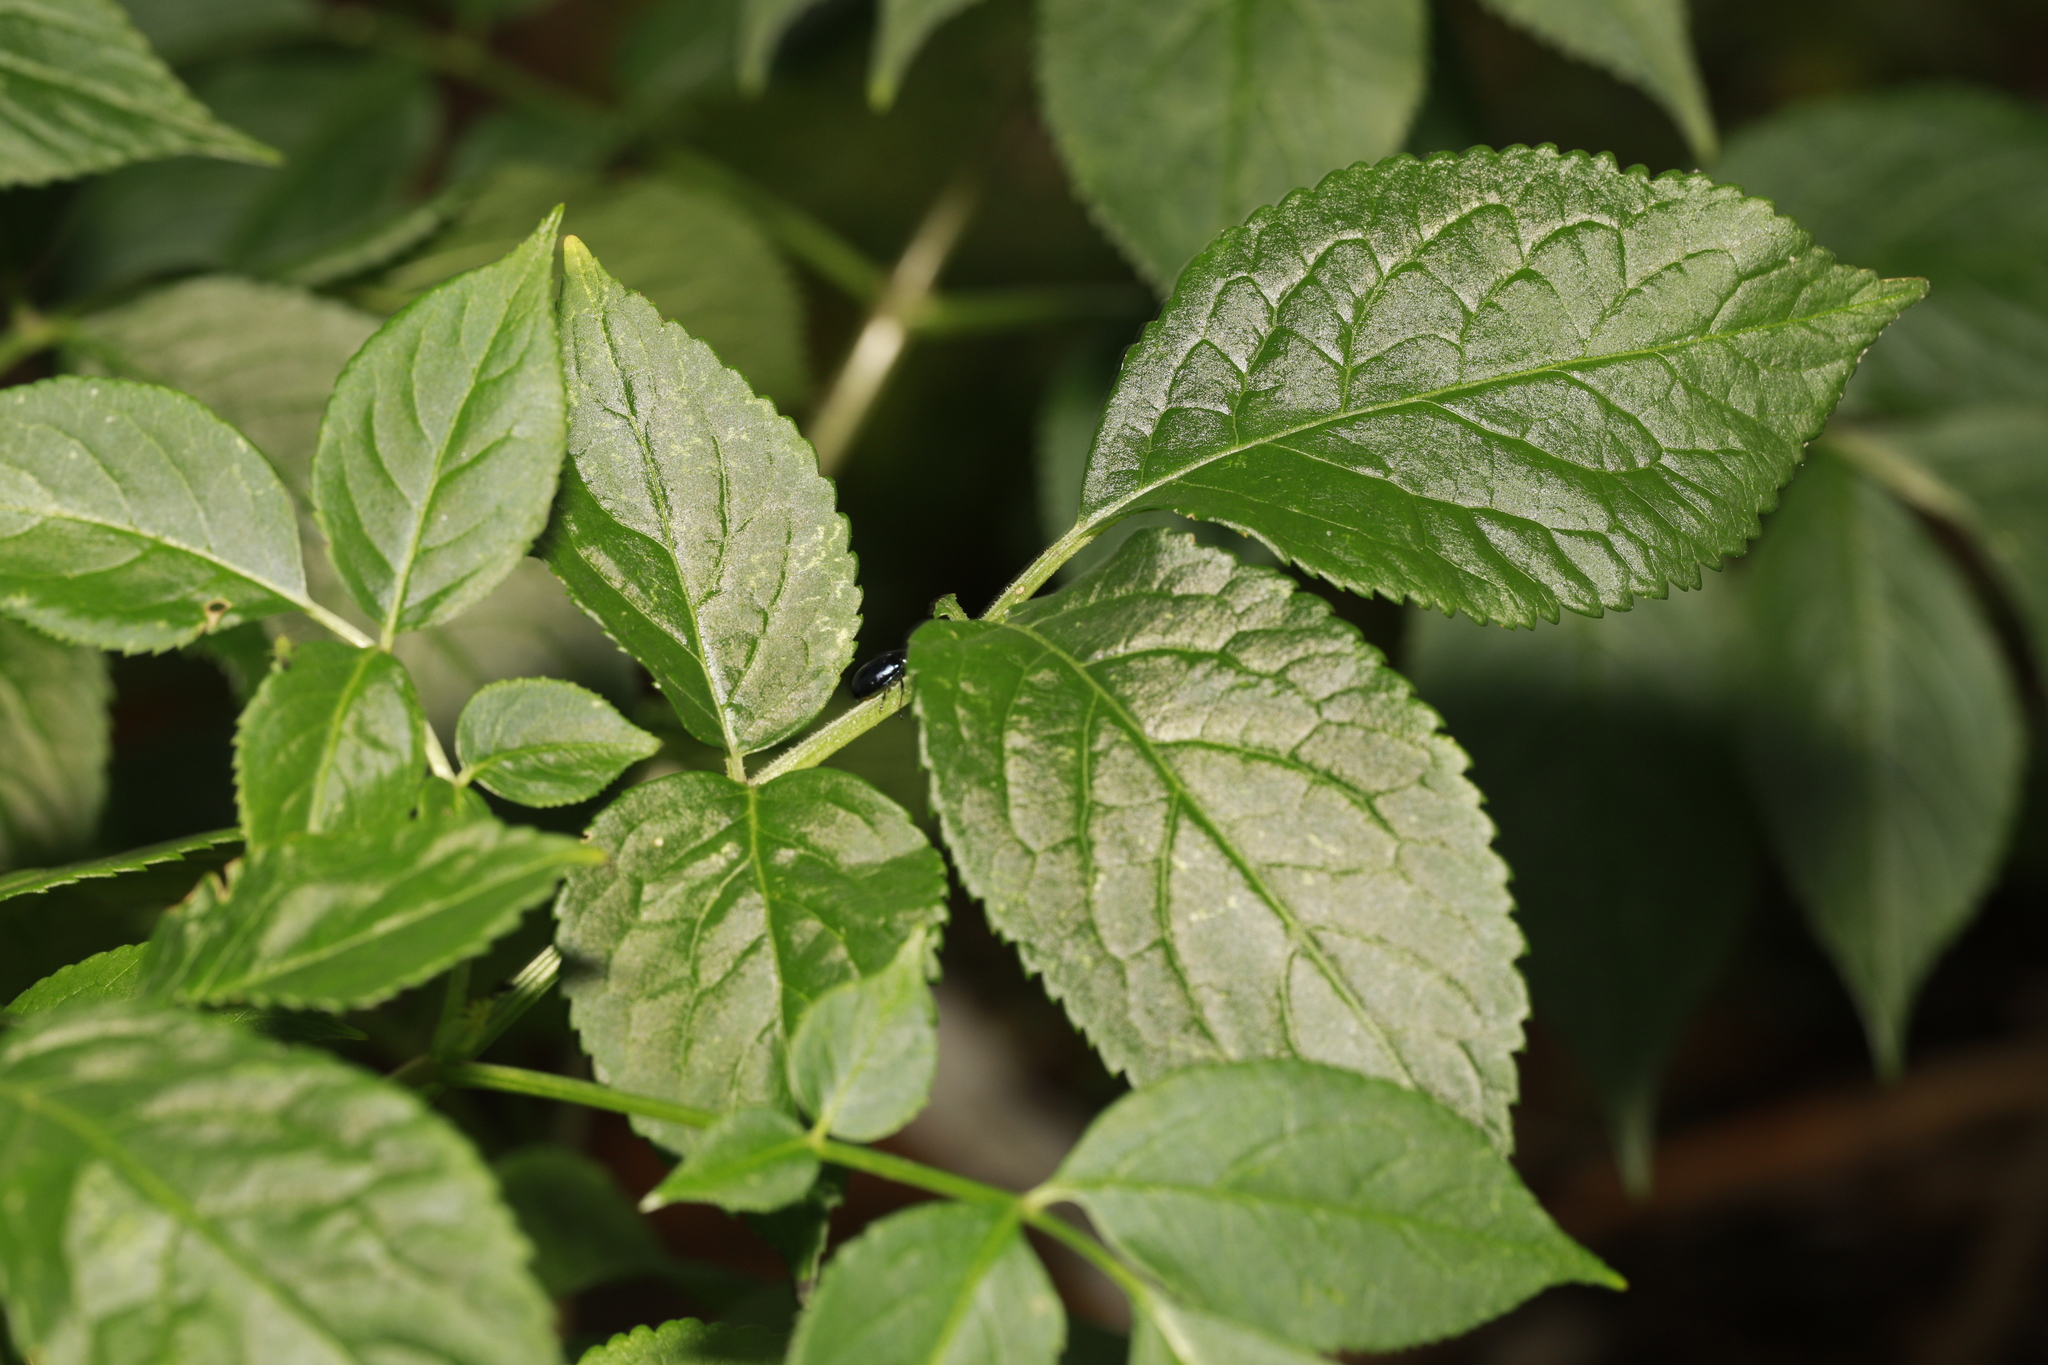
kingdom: Plantae
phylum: Tracheophyta
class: Magnoliopsida
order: Dipsacales
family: Viburnaceae
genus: Sambucus
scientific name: Sambucus nigra
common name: Elder
